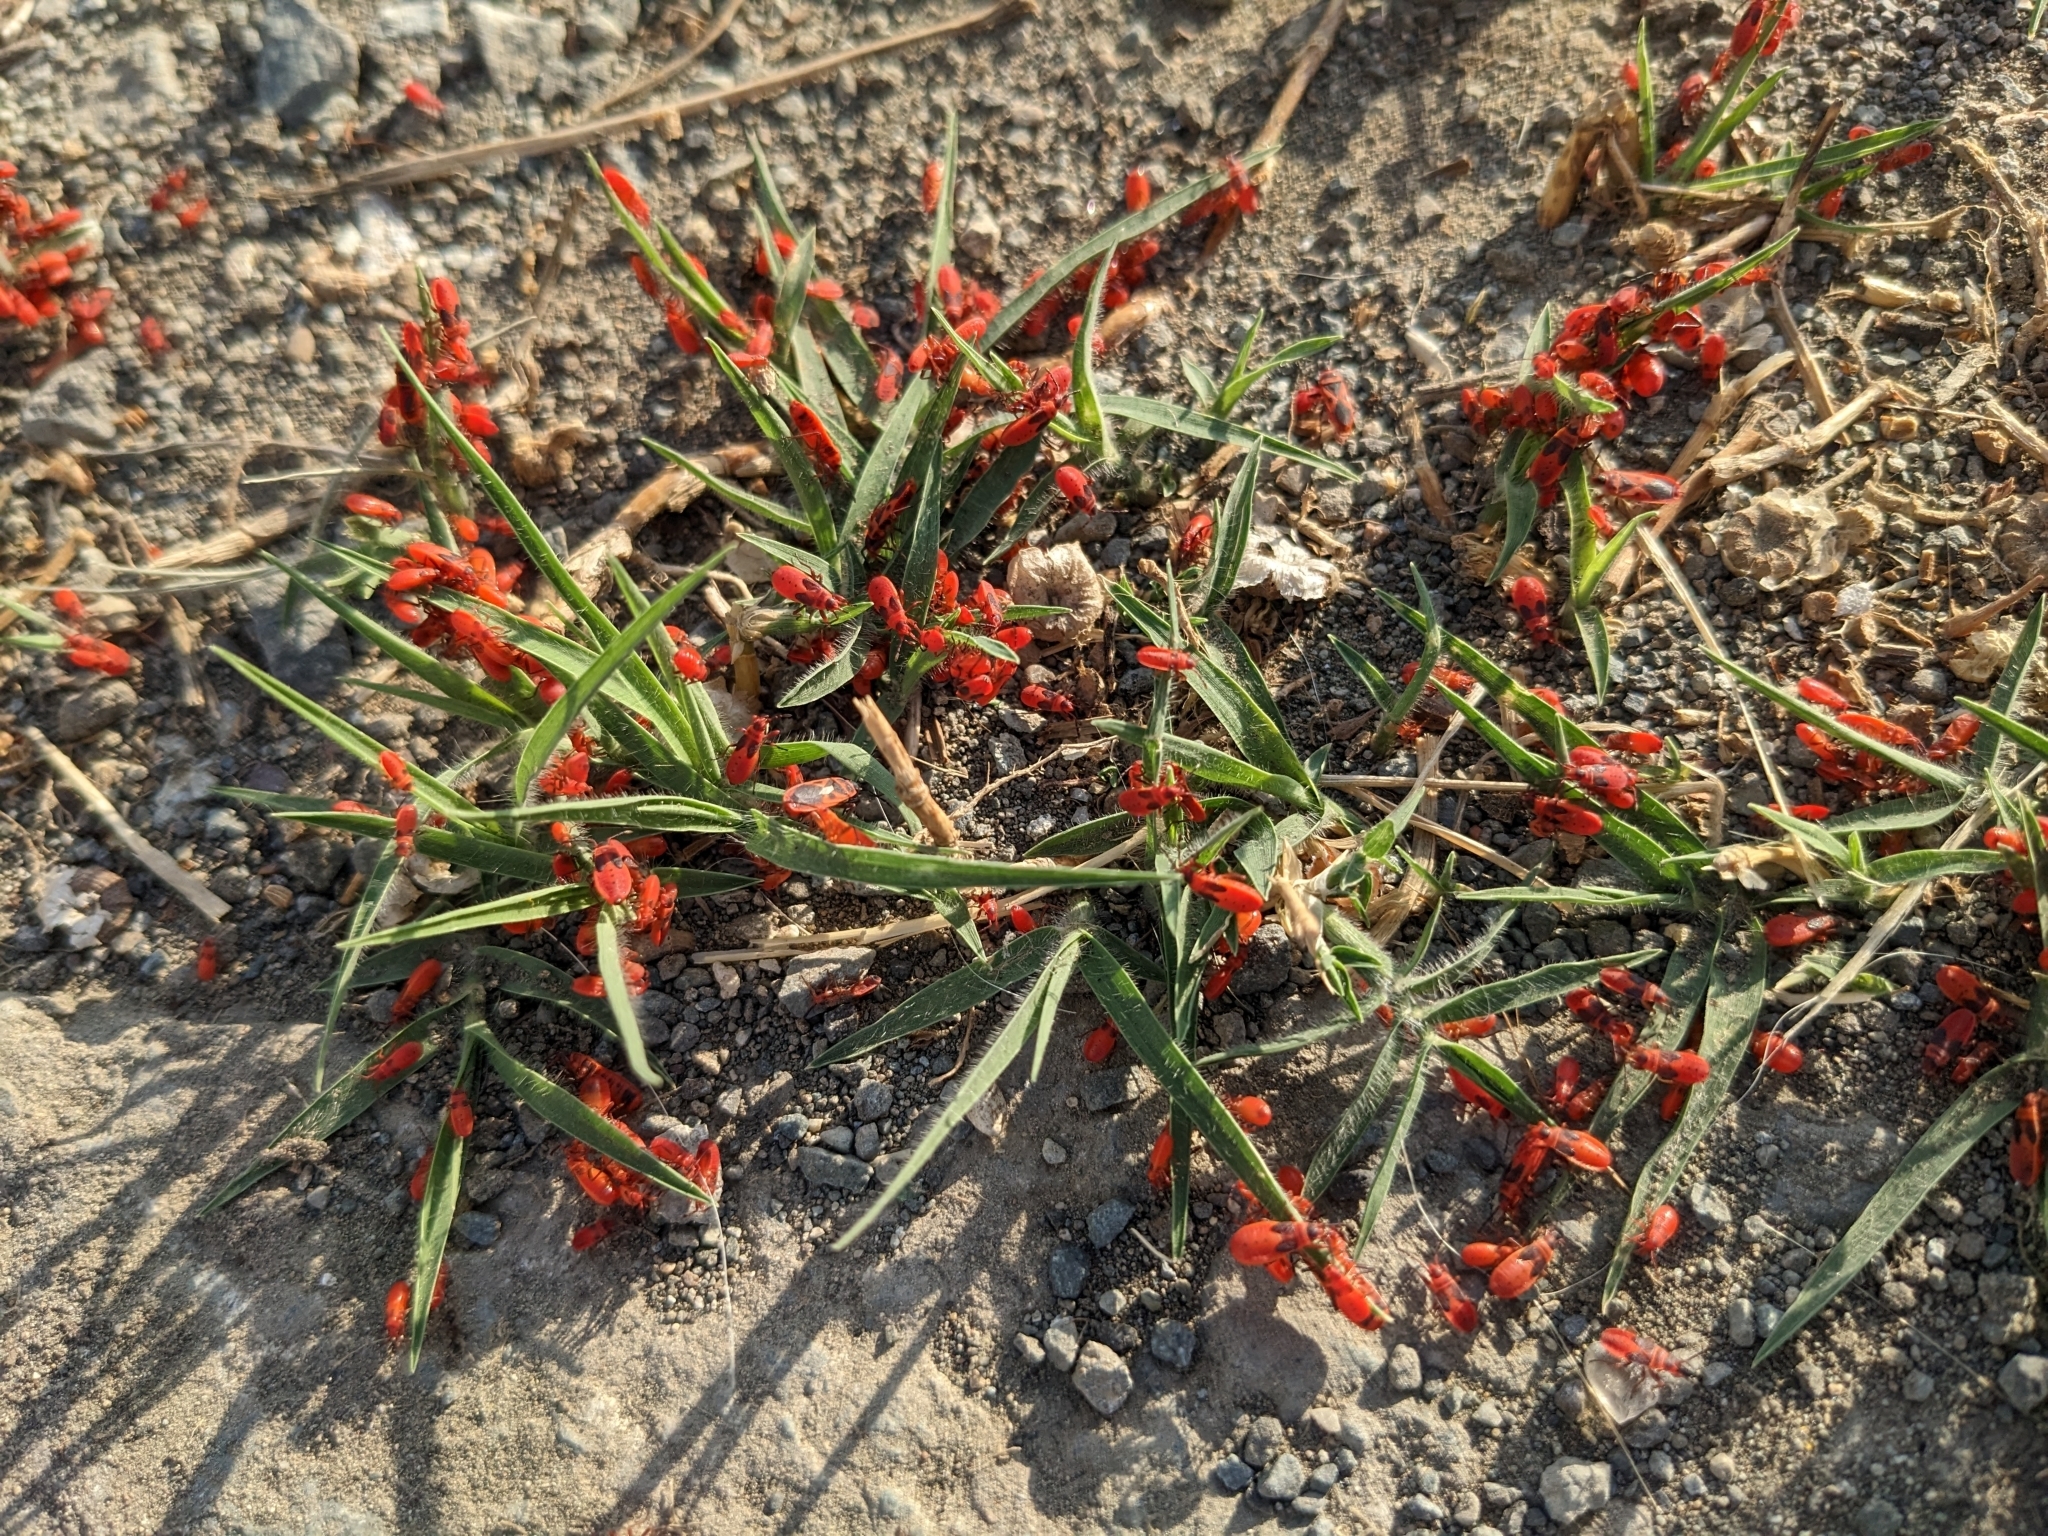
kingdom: Animalia
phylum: Arthropoda
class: Insecta
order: Hemiptera
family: Pyrrhocoridae
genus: Scantius
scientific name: Scantius aegyptius
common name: Red bug
